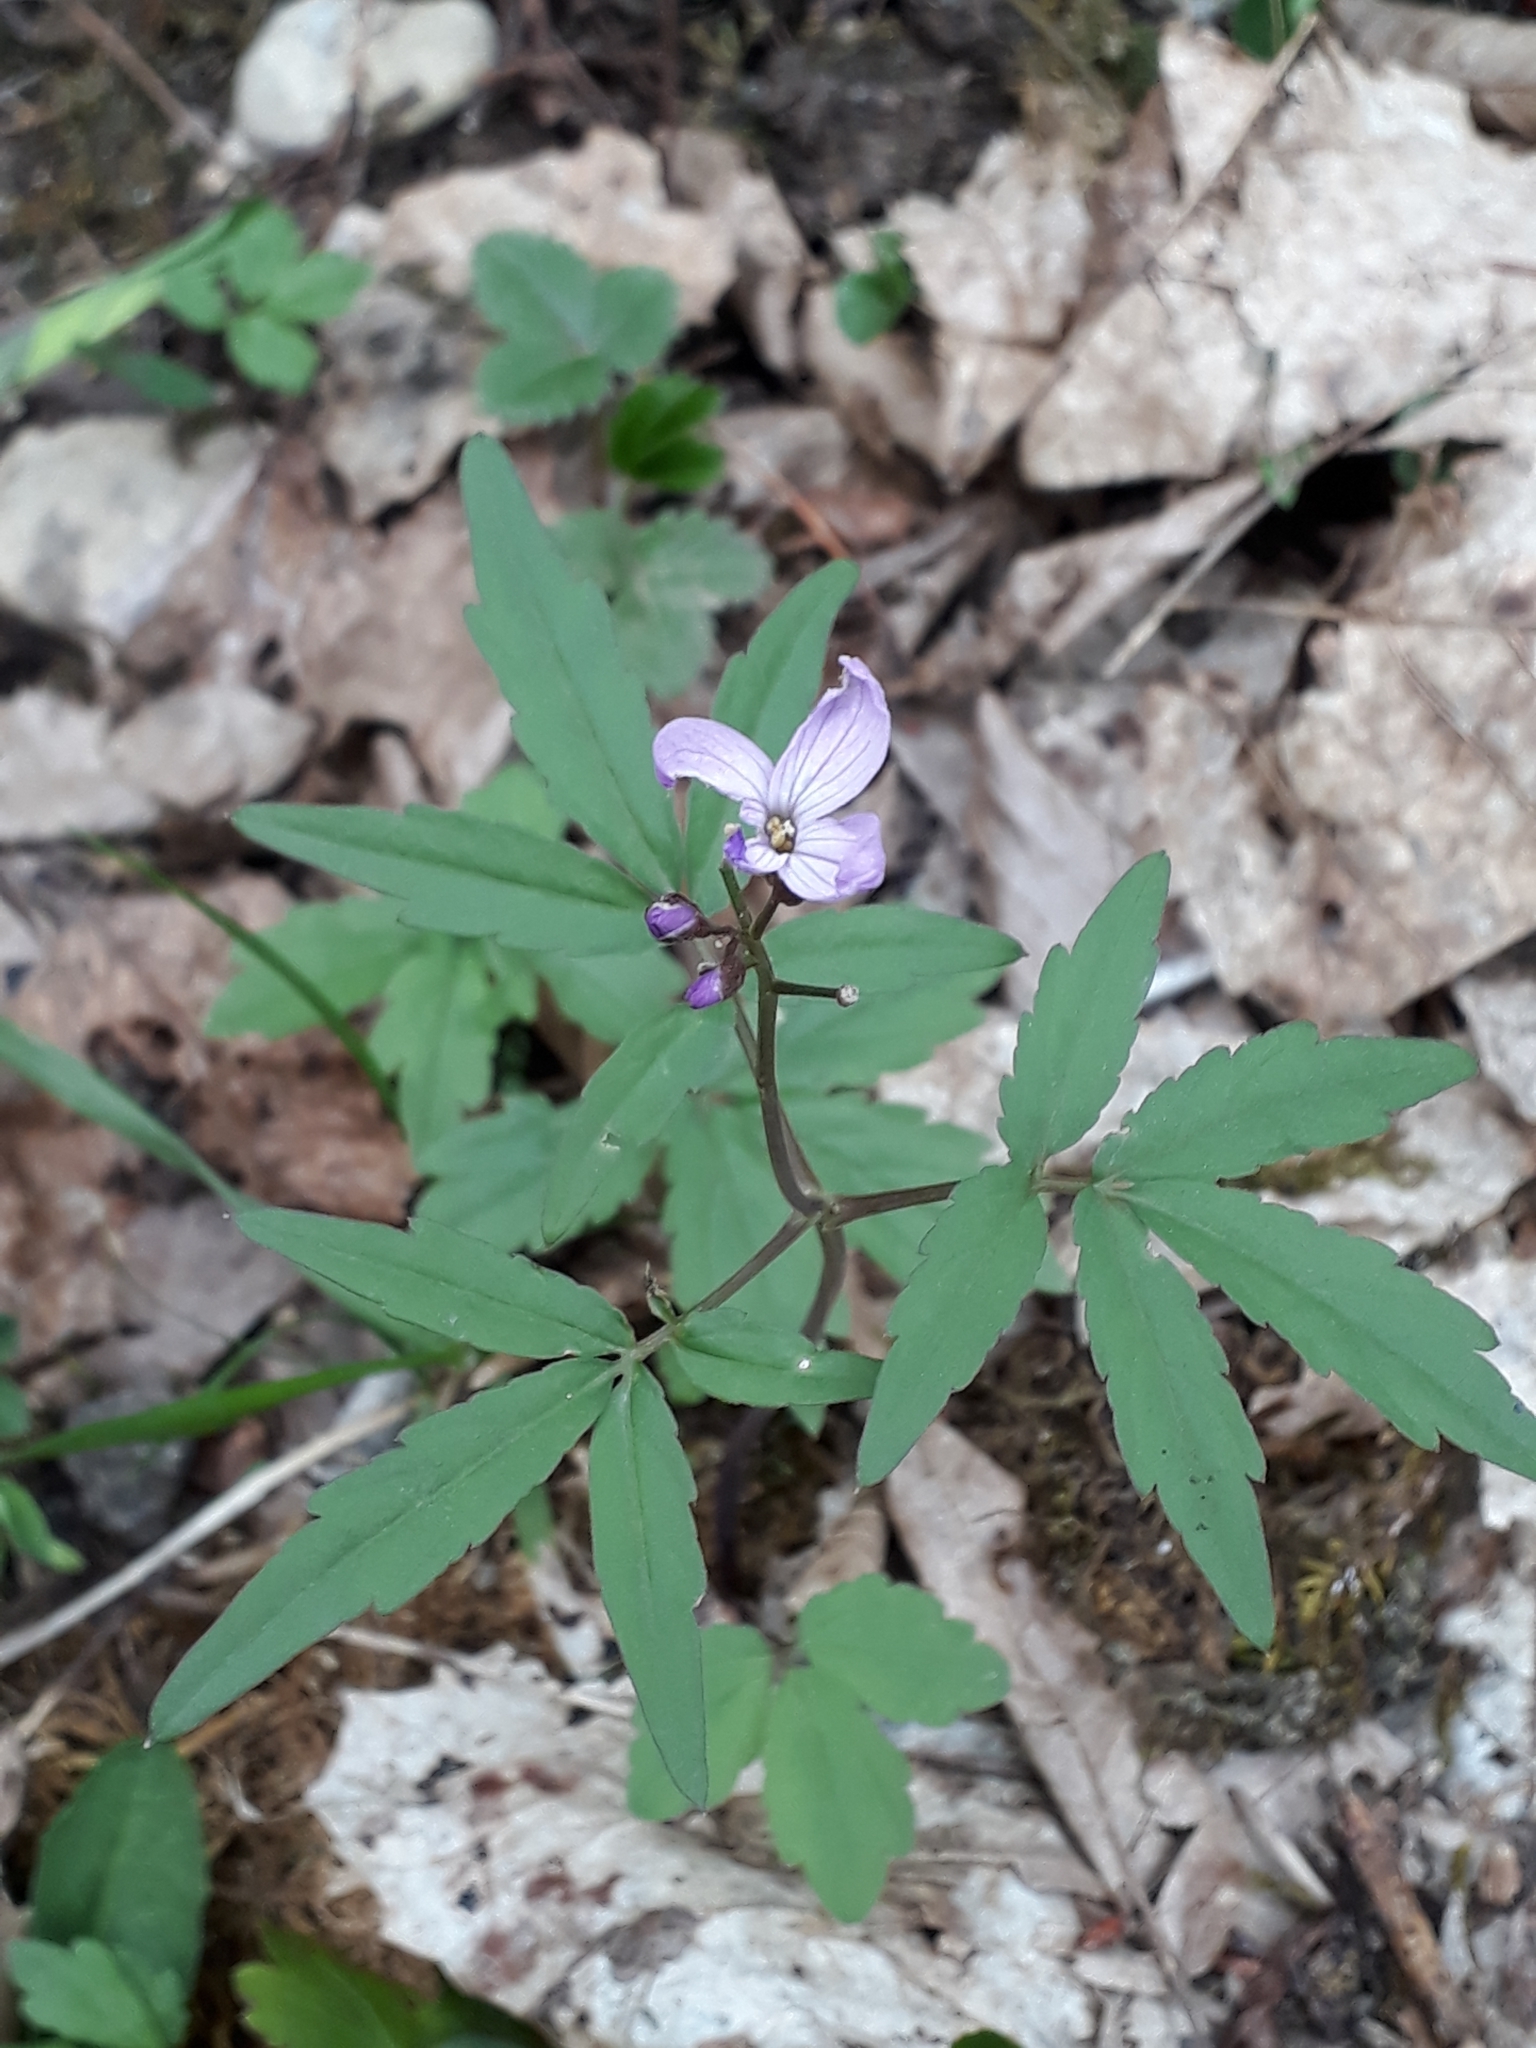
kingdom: Plantae
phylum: Tracheophyta
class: Magnoliopsida
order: Brassicales
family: Brassicaceae
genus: Cardamine
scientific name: Cardamine quinquefolia
